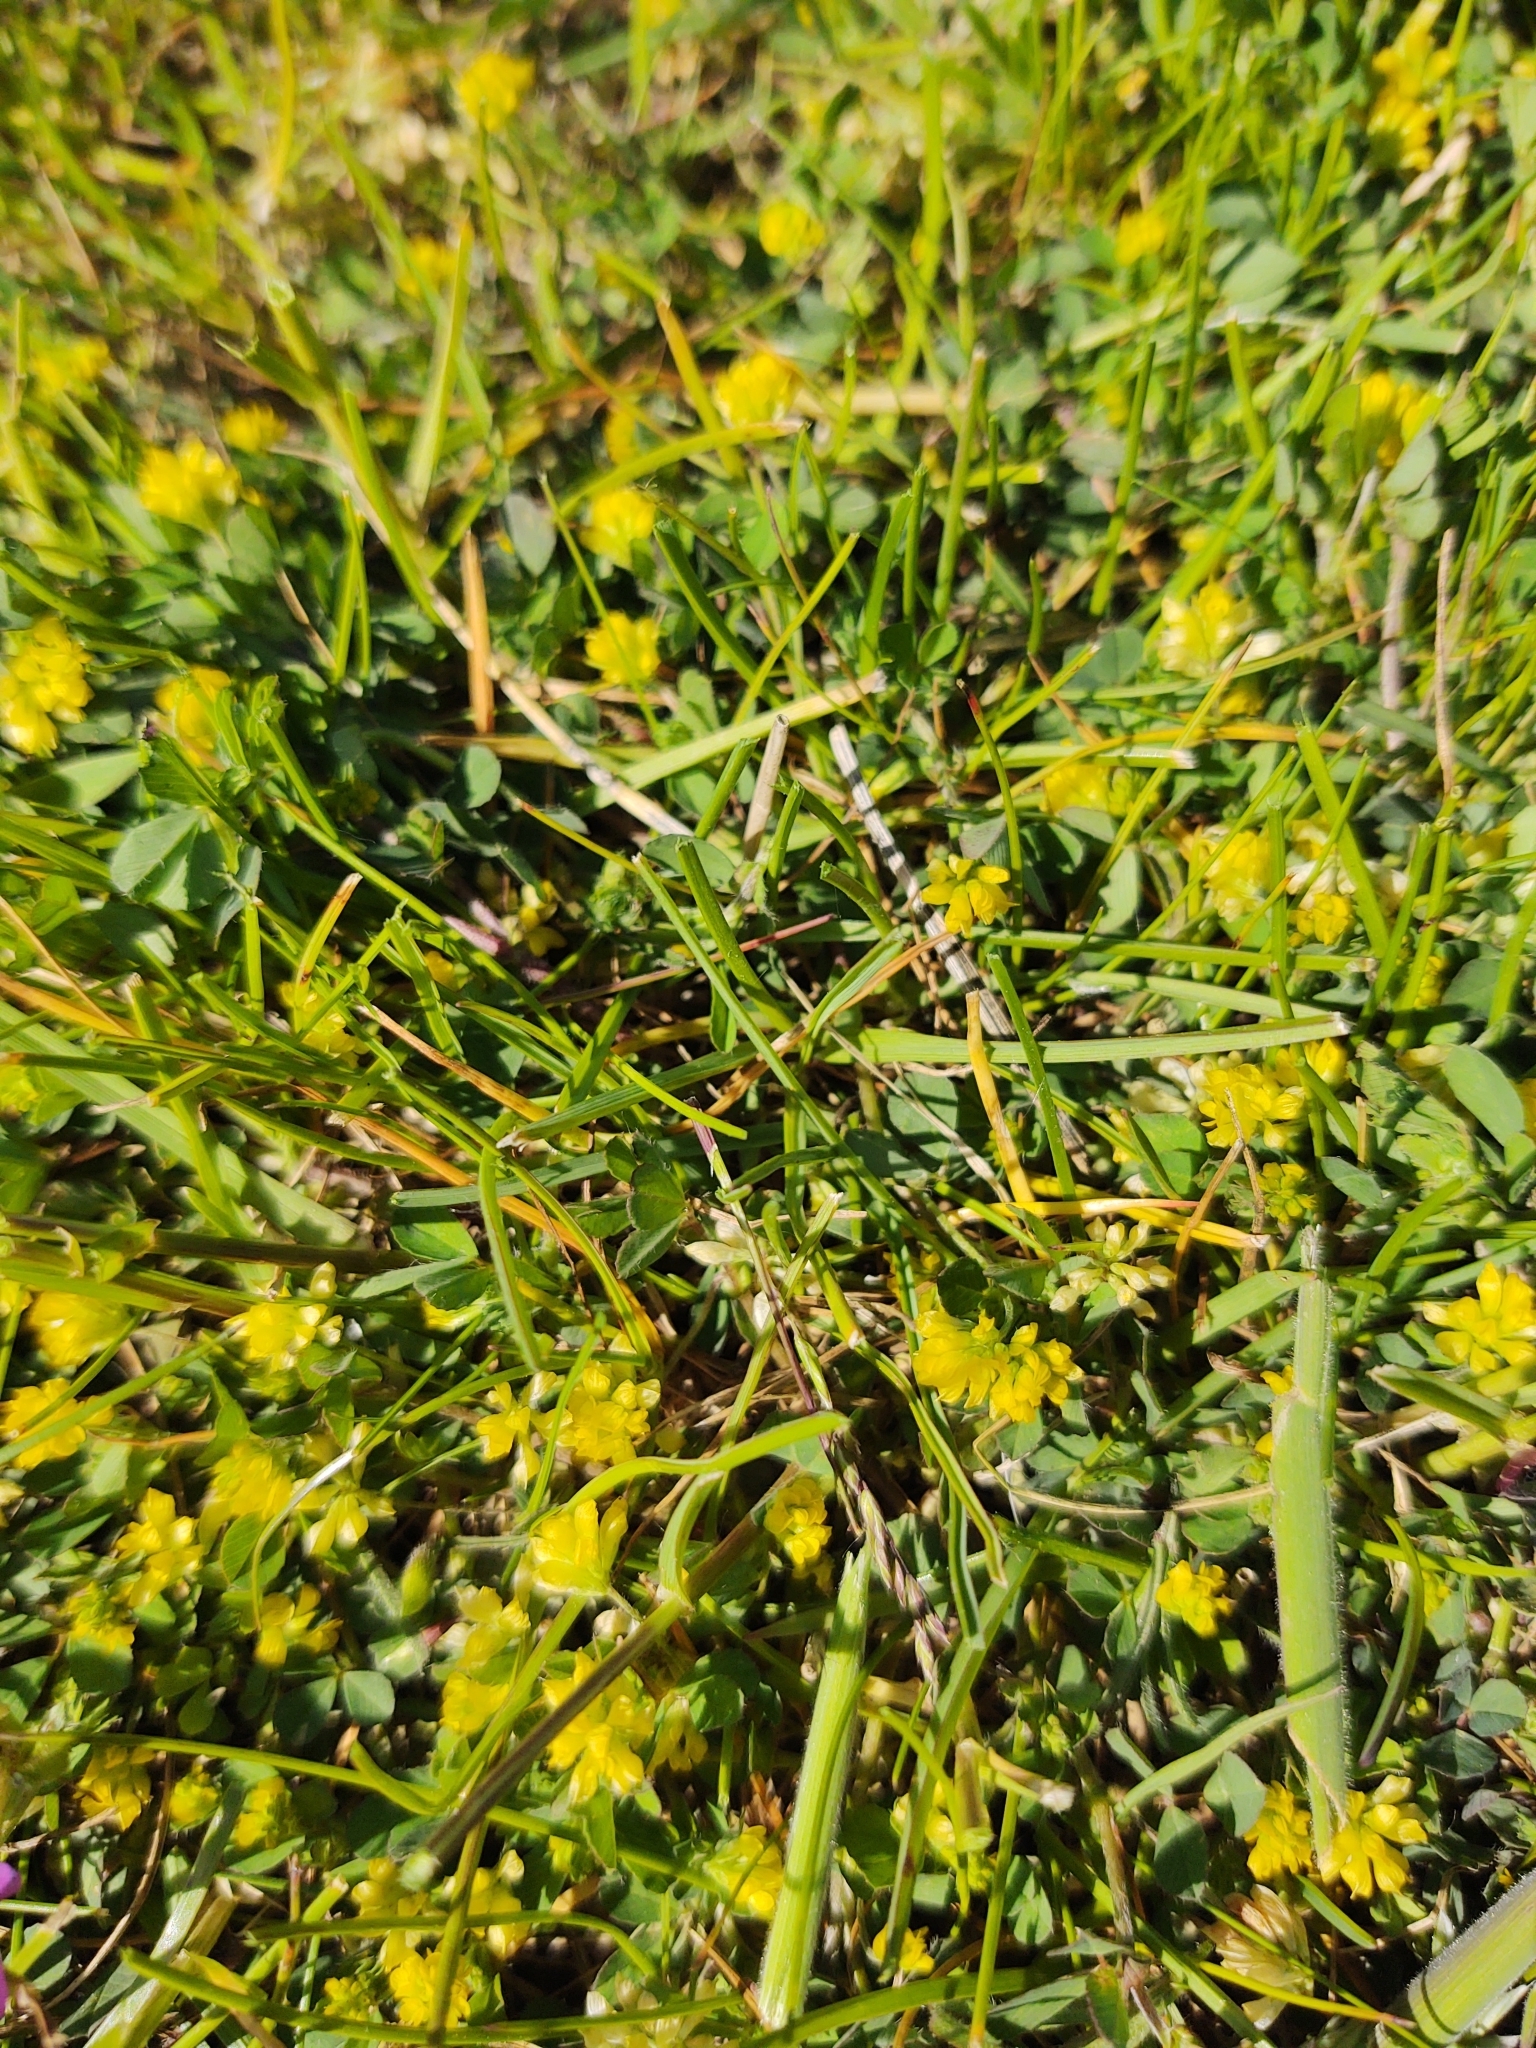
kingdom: Plantae
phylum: Tracheophyta
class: Magnoliopsida
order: Fabales
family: Fabaceae
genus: Trifolium
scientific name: Trifolium dubium
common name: Suckling clover
